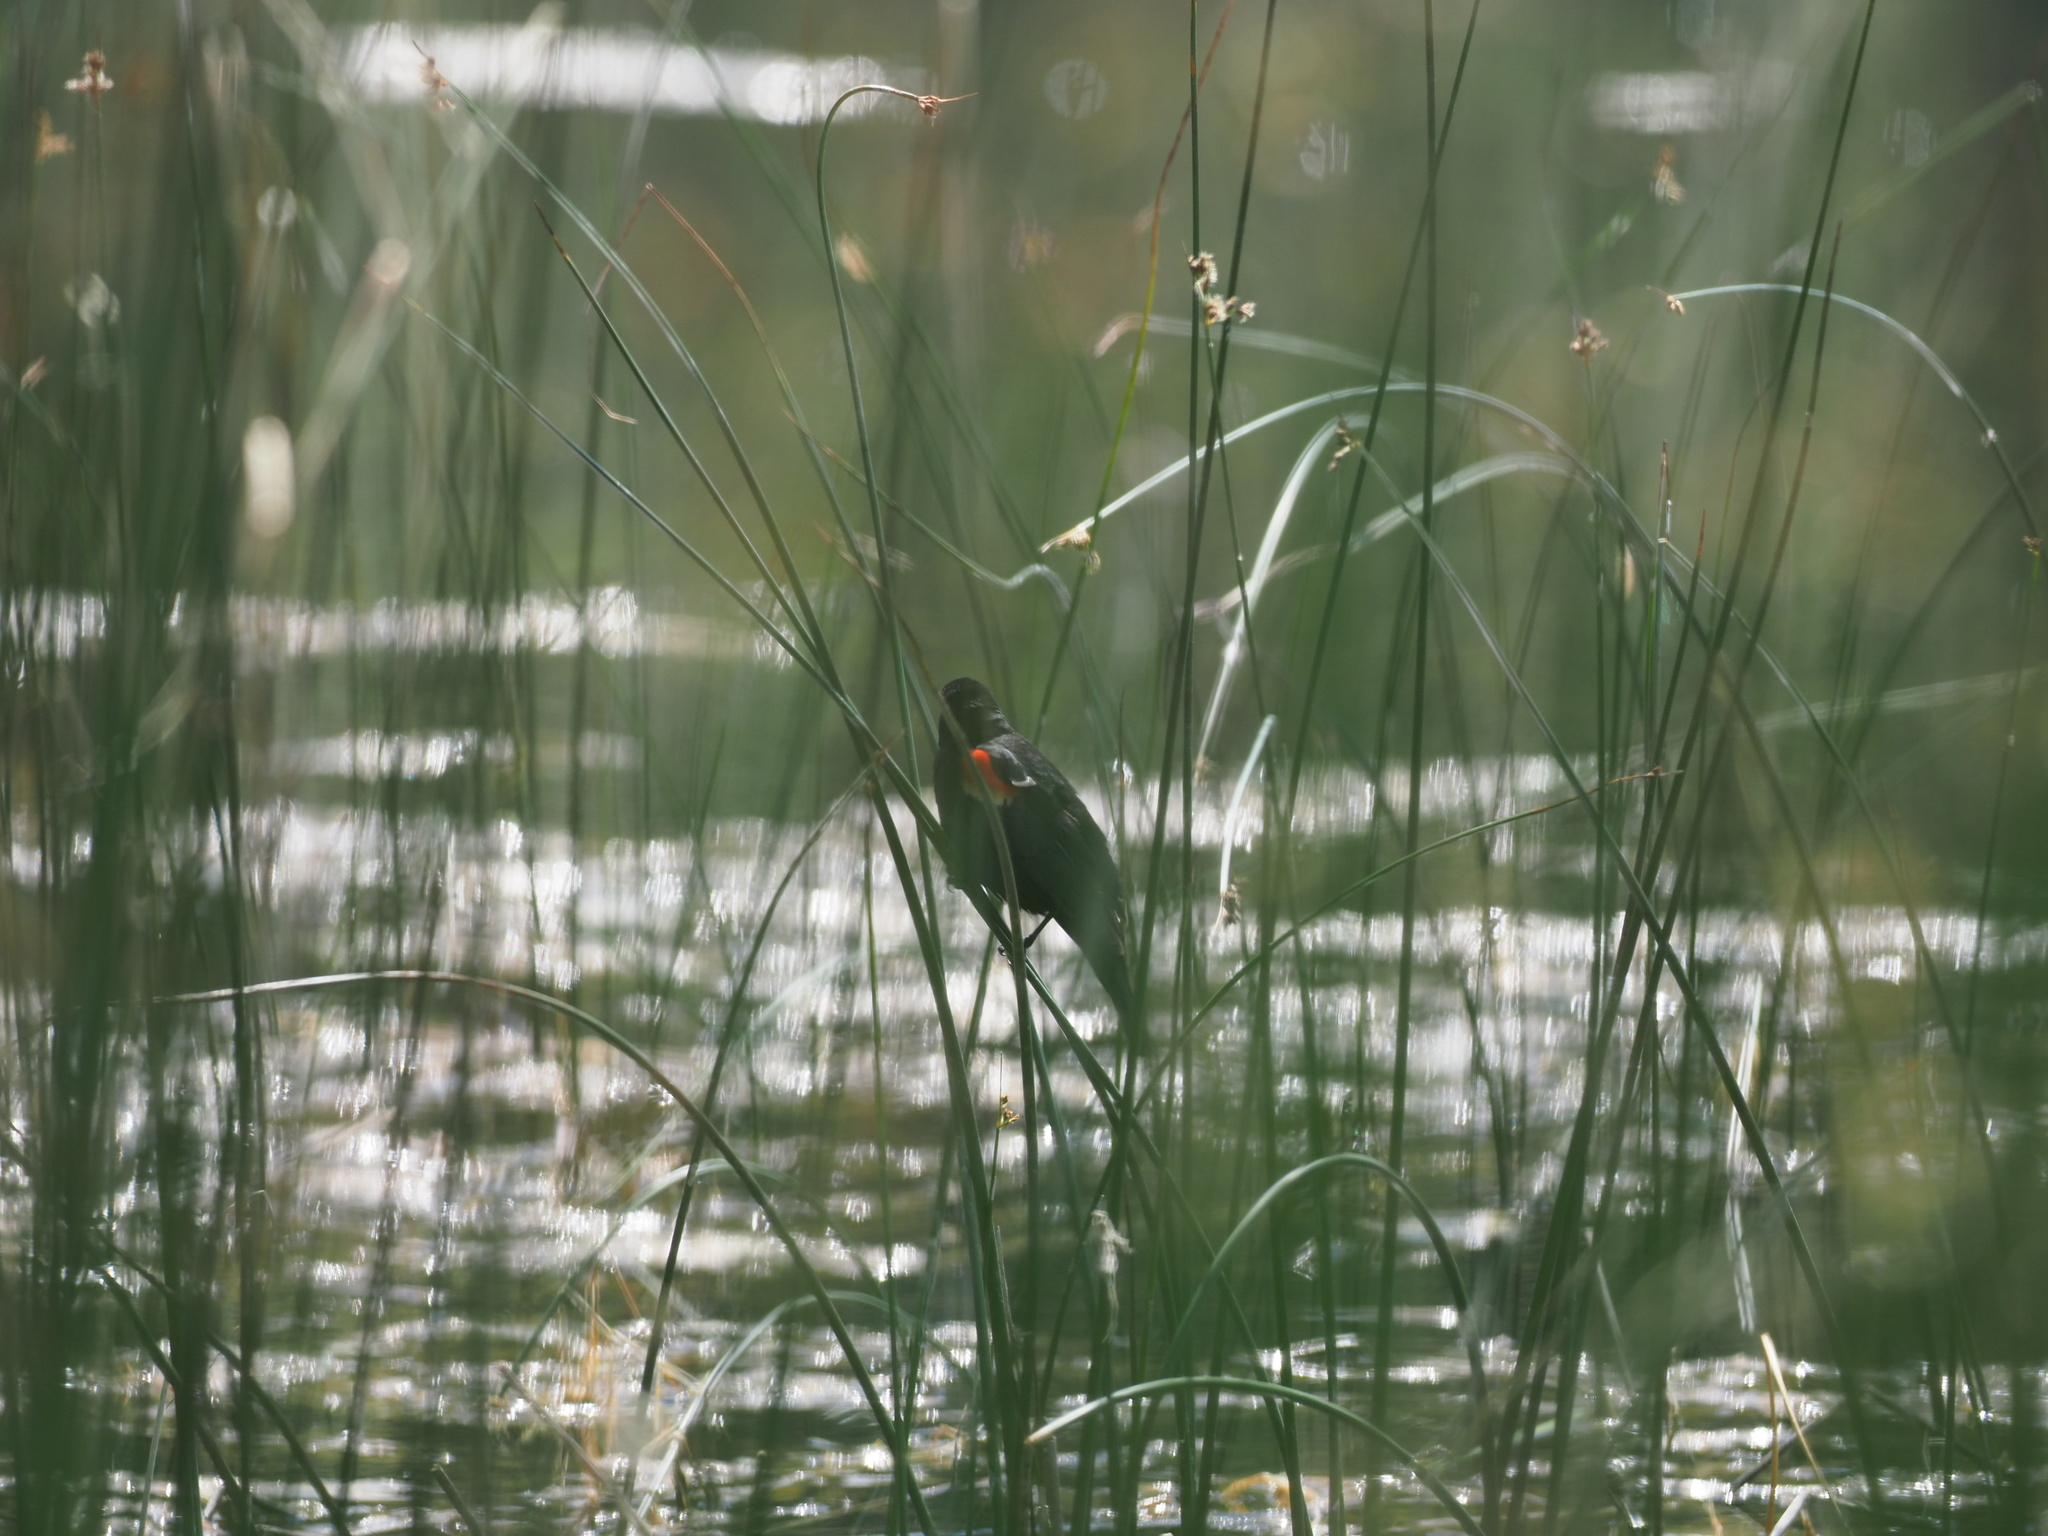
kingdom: Animalia
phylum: Chordata
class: Aves
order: Passeriformes
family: Icteridae
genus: Agelaius
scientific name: Agelaius phoeniceus
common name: Red-winged blackbird
